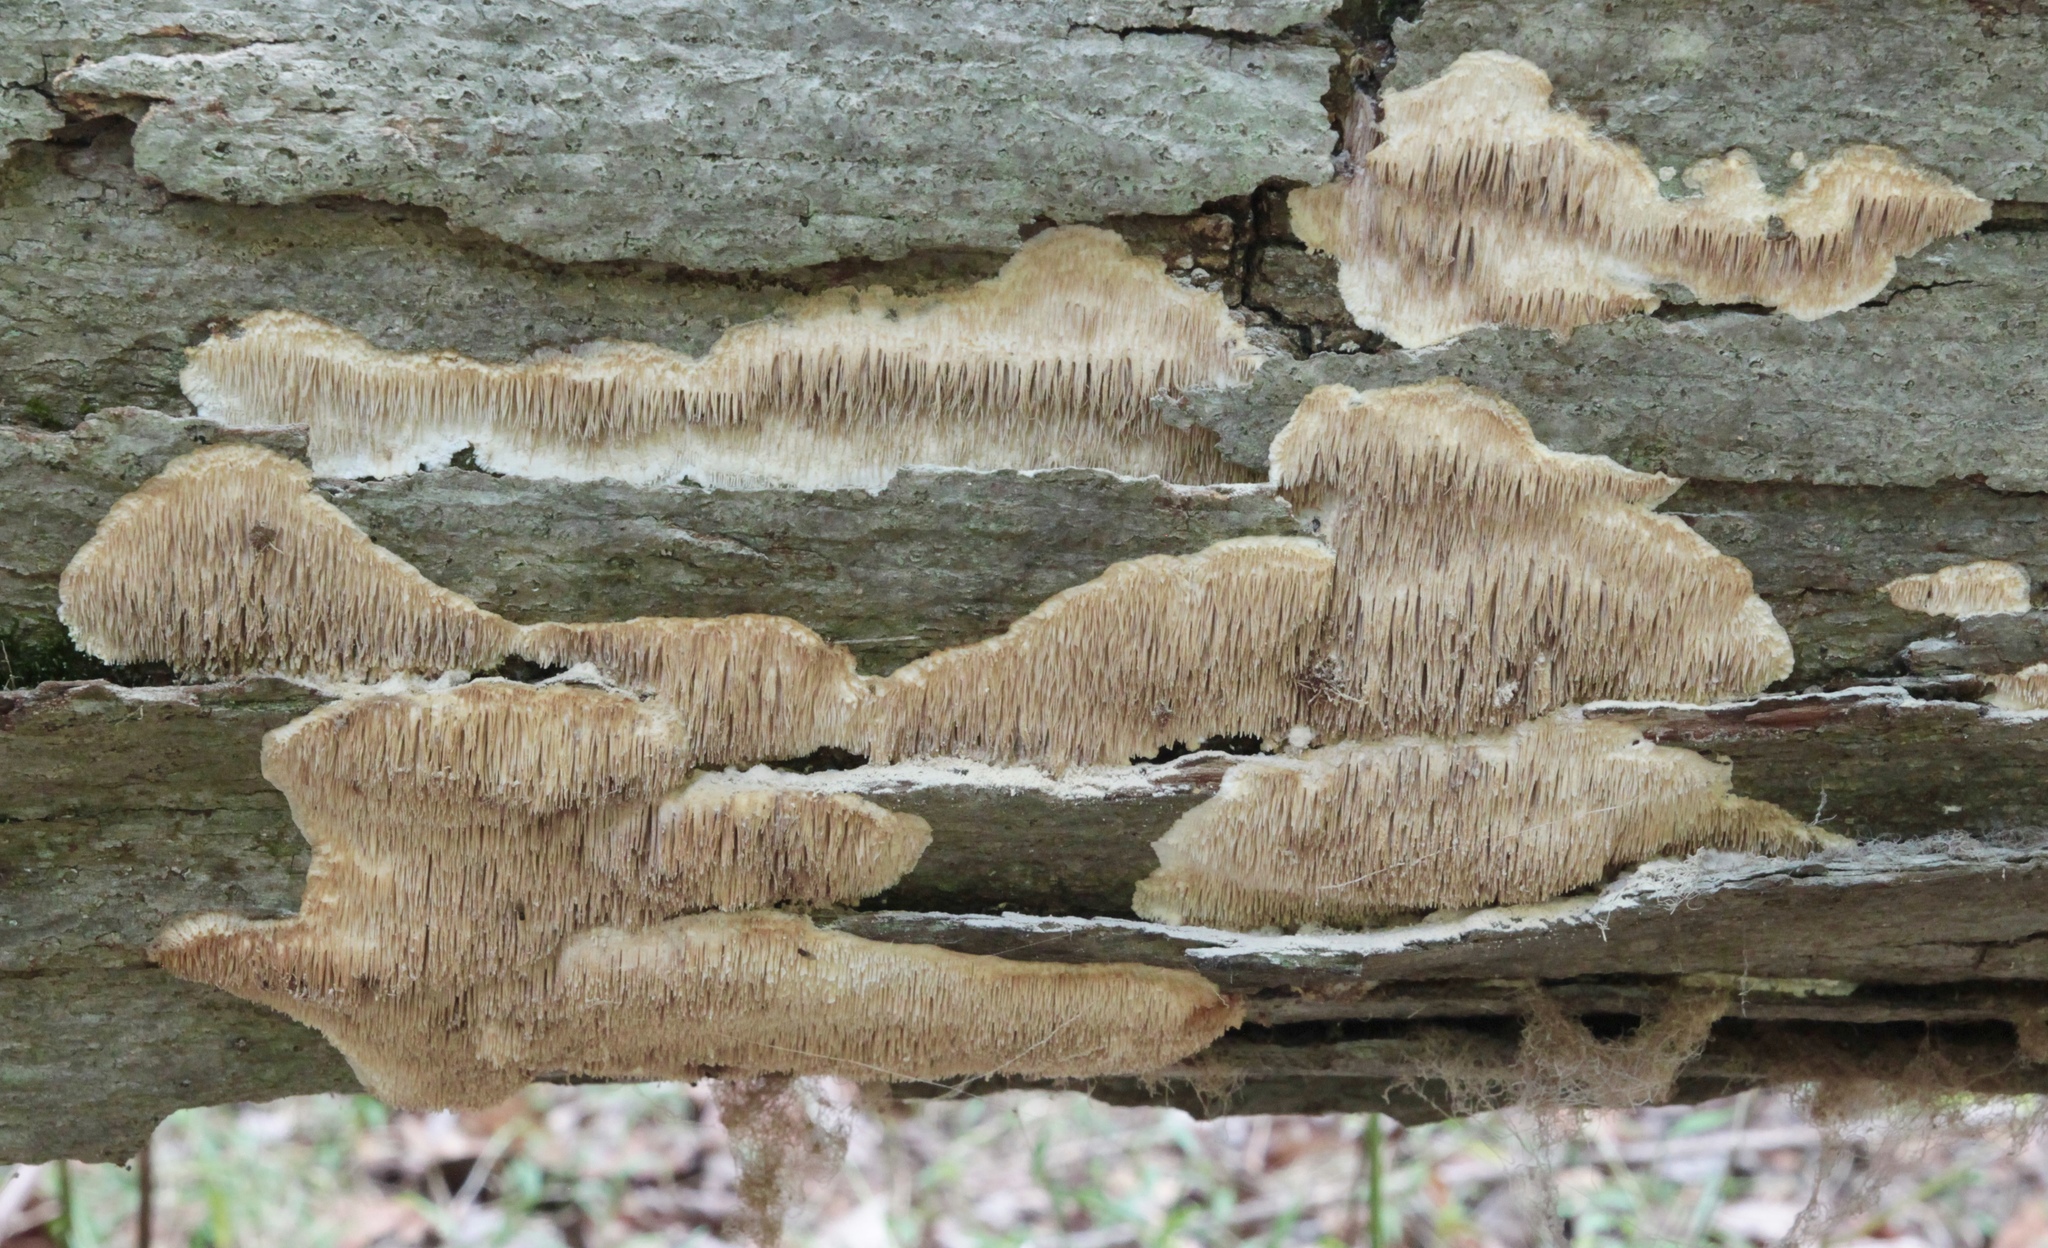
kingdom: Fungi
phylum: Basidiomycota
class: Agaricomycetes
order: Agaricales
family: Radulomycetaceae
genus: Radulomyces
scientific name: Radulomyces copelandii
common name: Asian beauty
